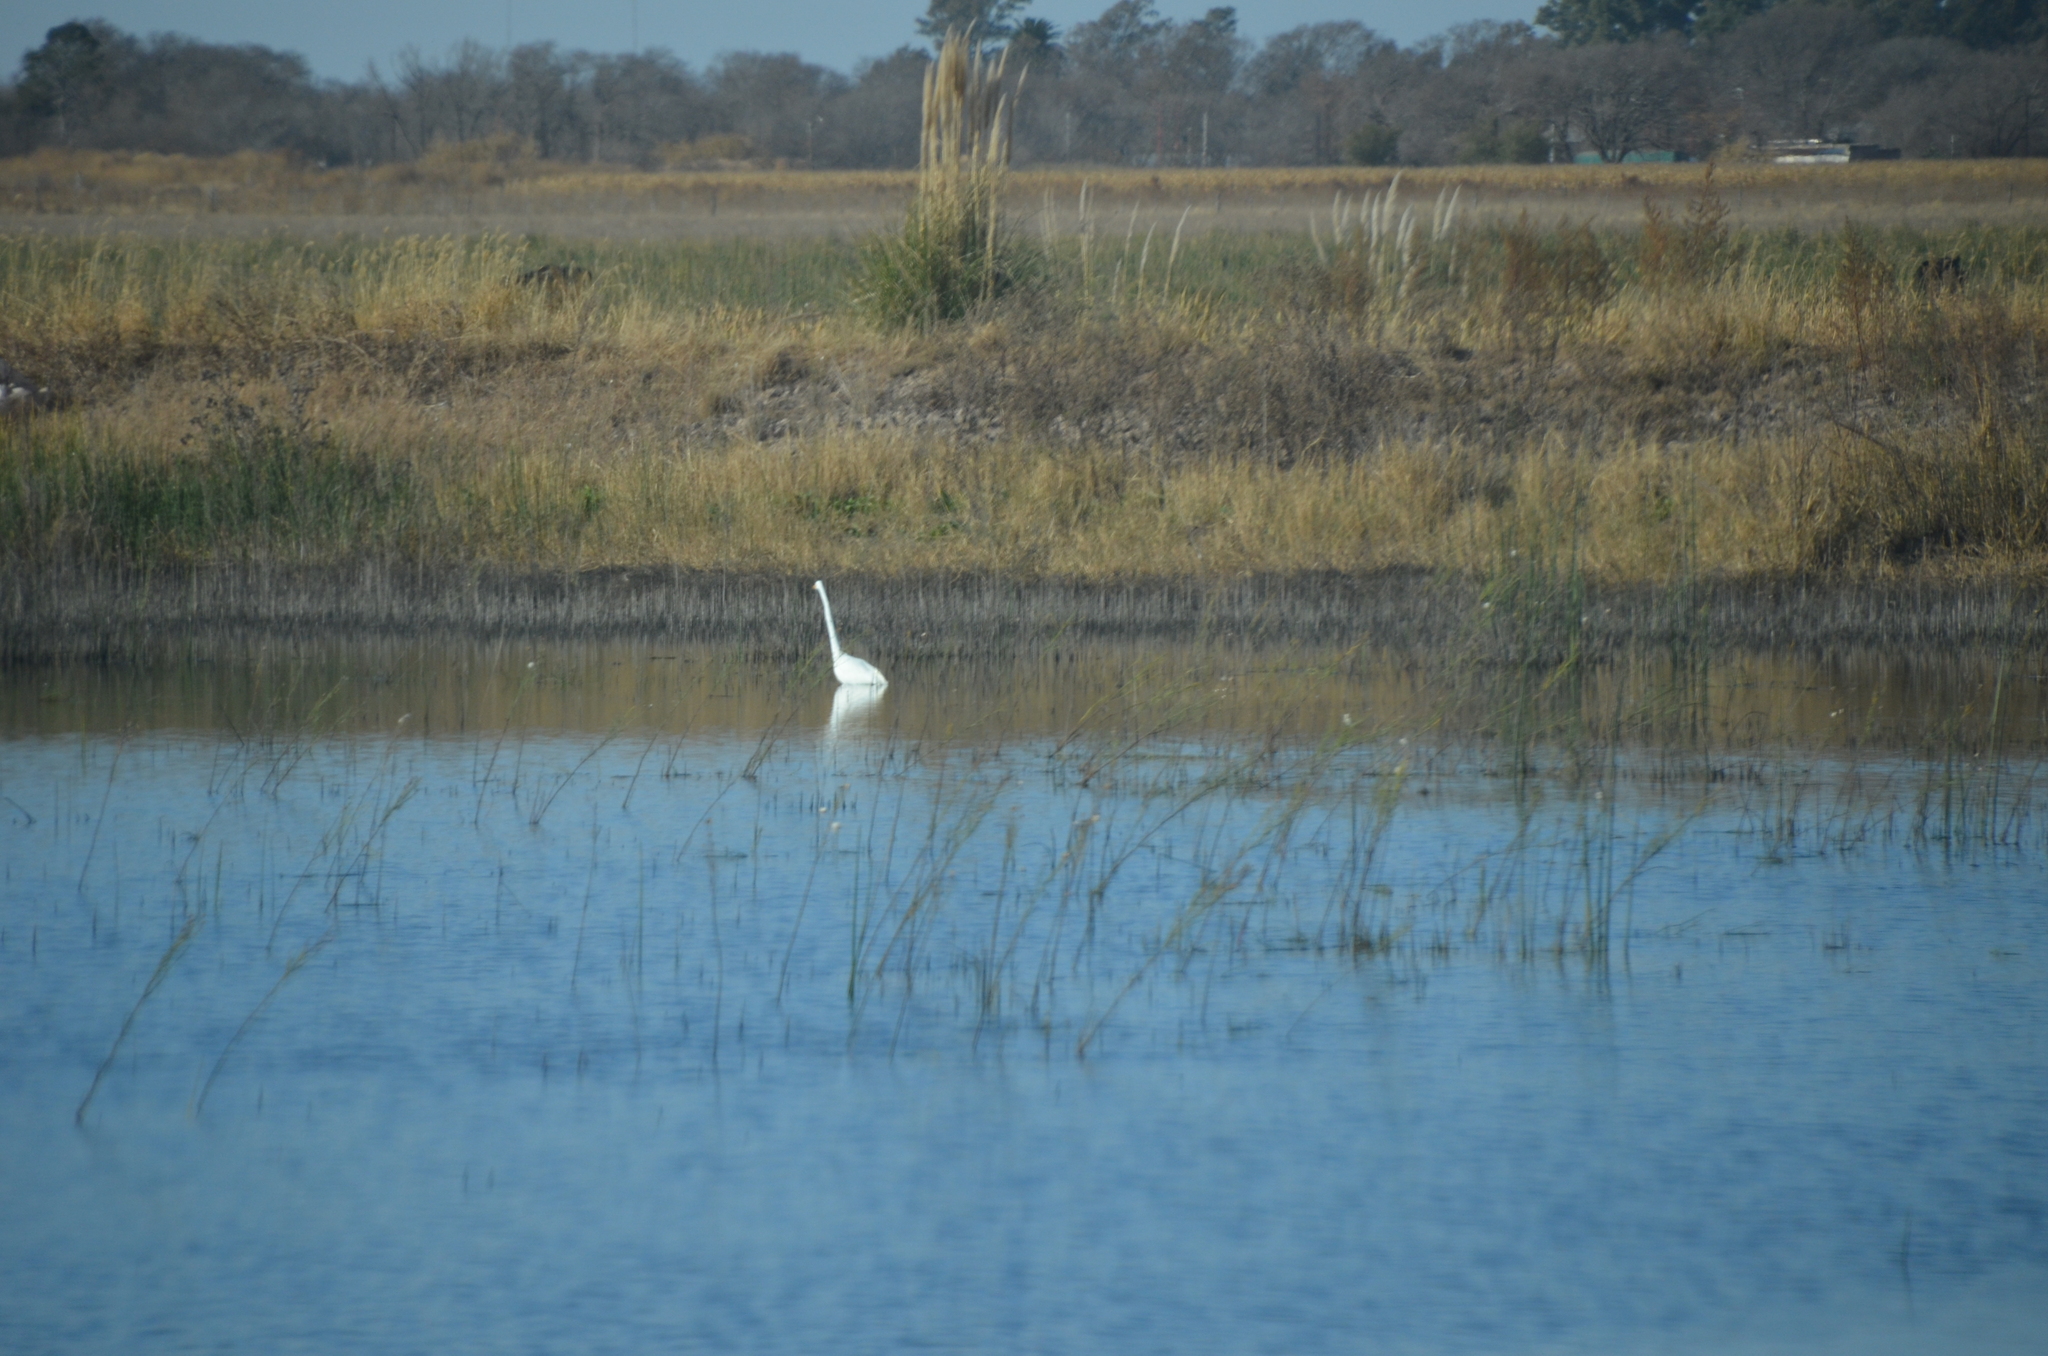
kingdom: Animalia
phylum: Chordata
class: Aves
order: Pelecaniformes
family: Ardeidae
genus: Ardea
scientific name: Ardea alba
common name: Great egret
